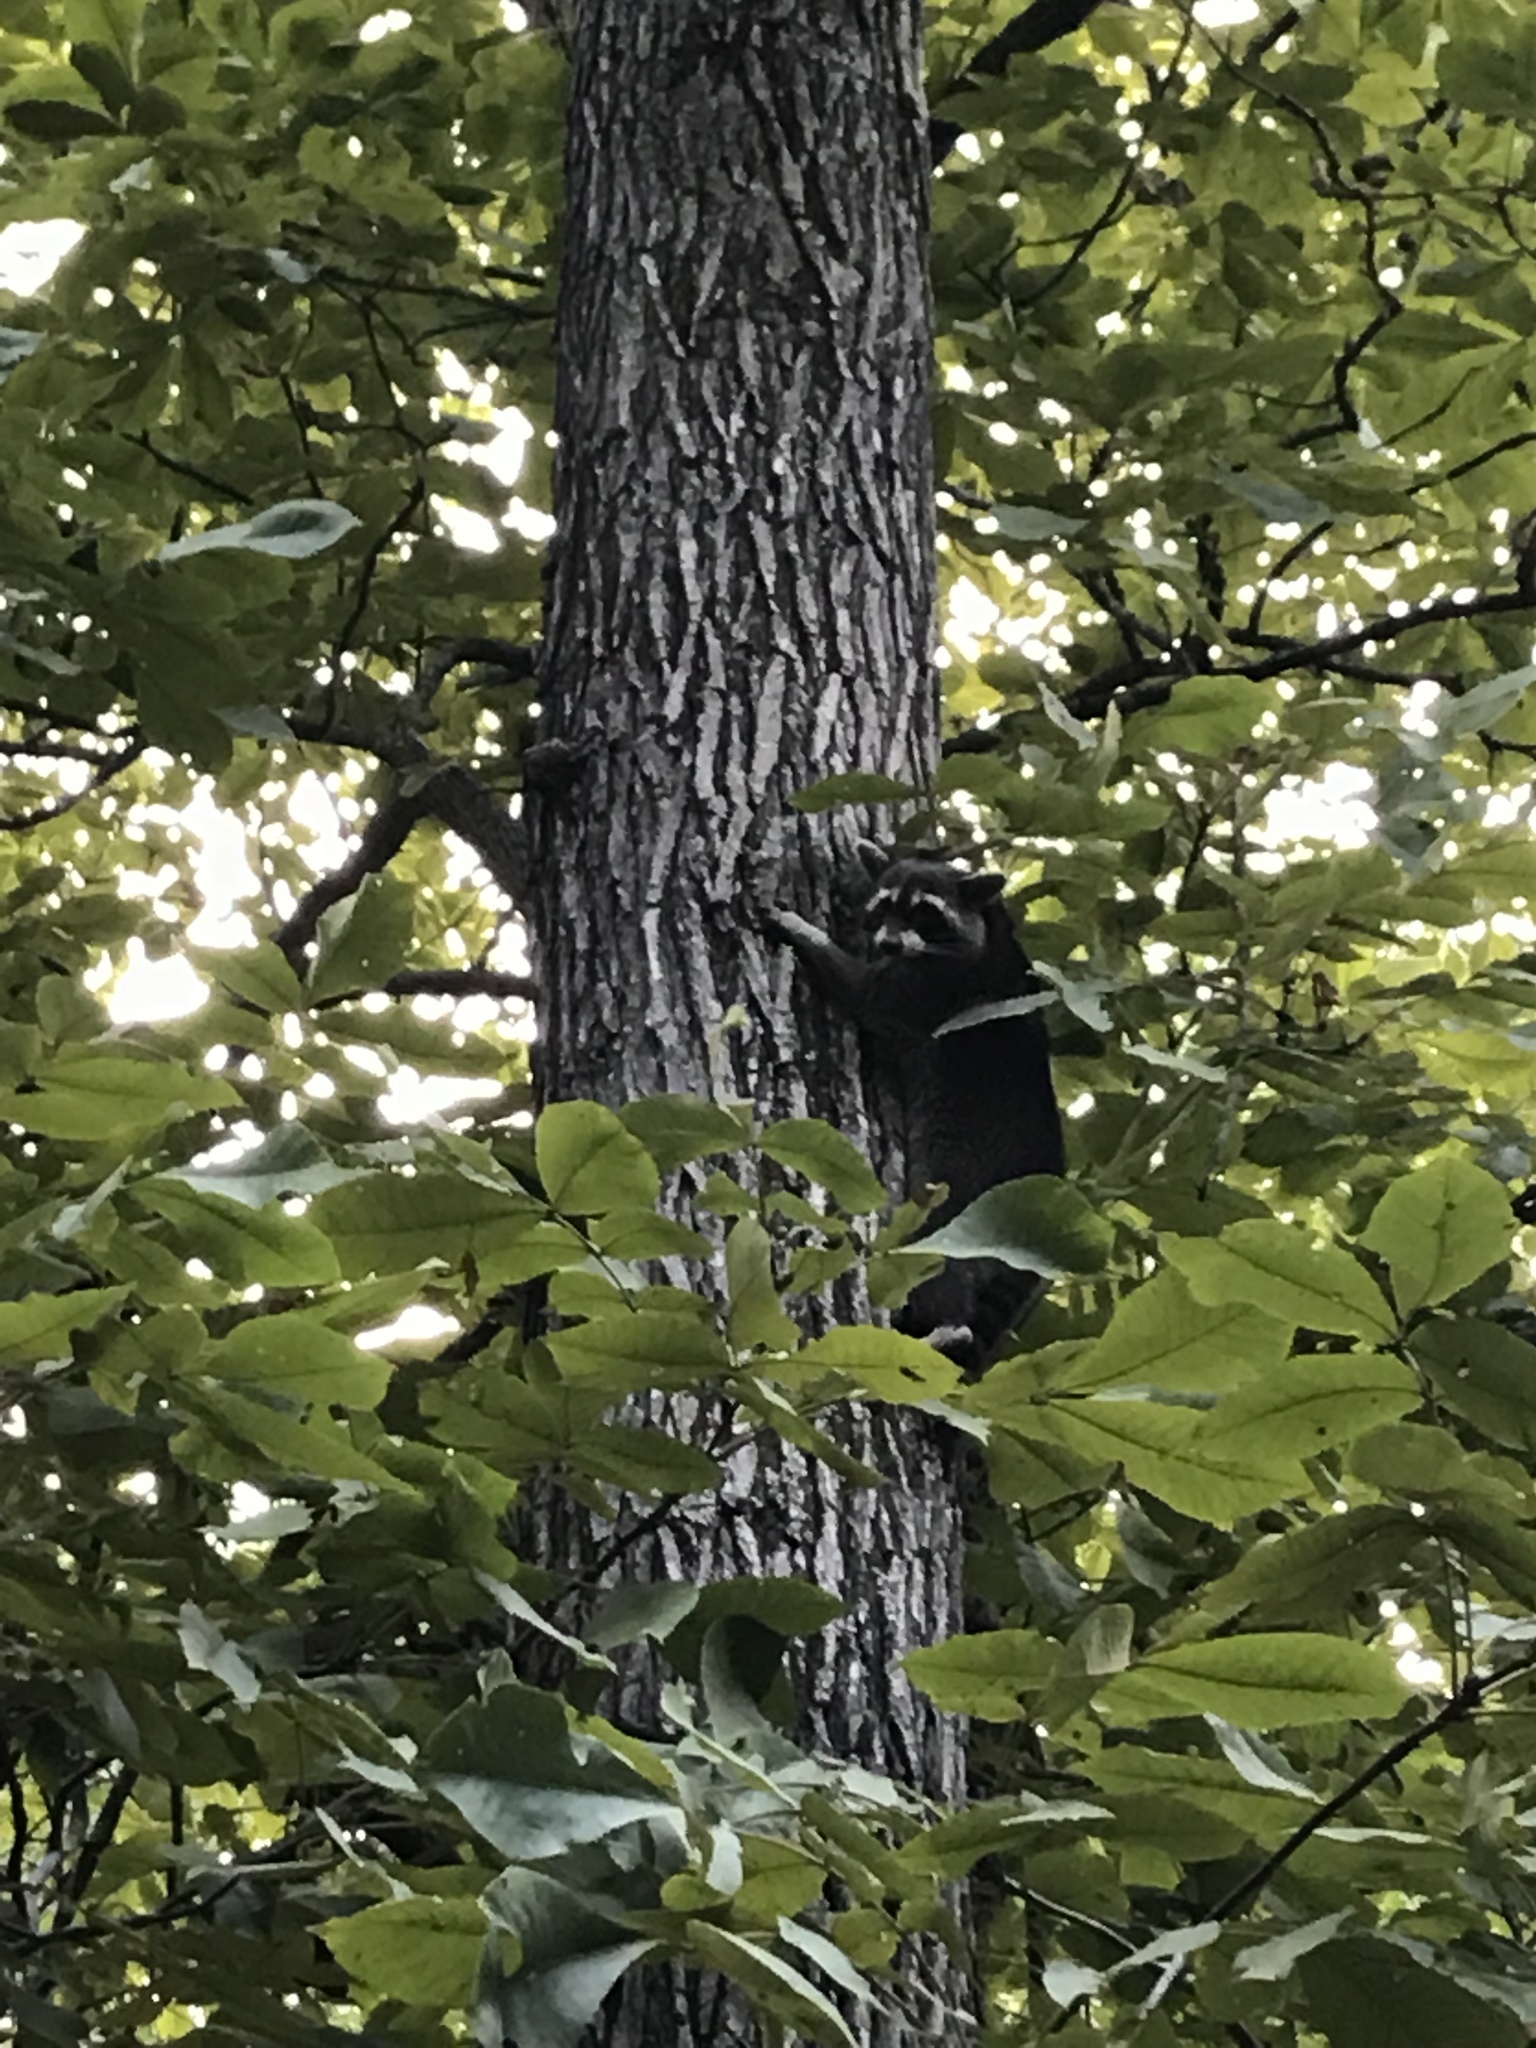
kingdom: Animalia
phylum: Chordata
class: Mammalia
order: Carnivora
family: Procyonidae
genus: Procyon
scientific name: Procyon lotor
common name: Raccoon
